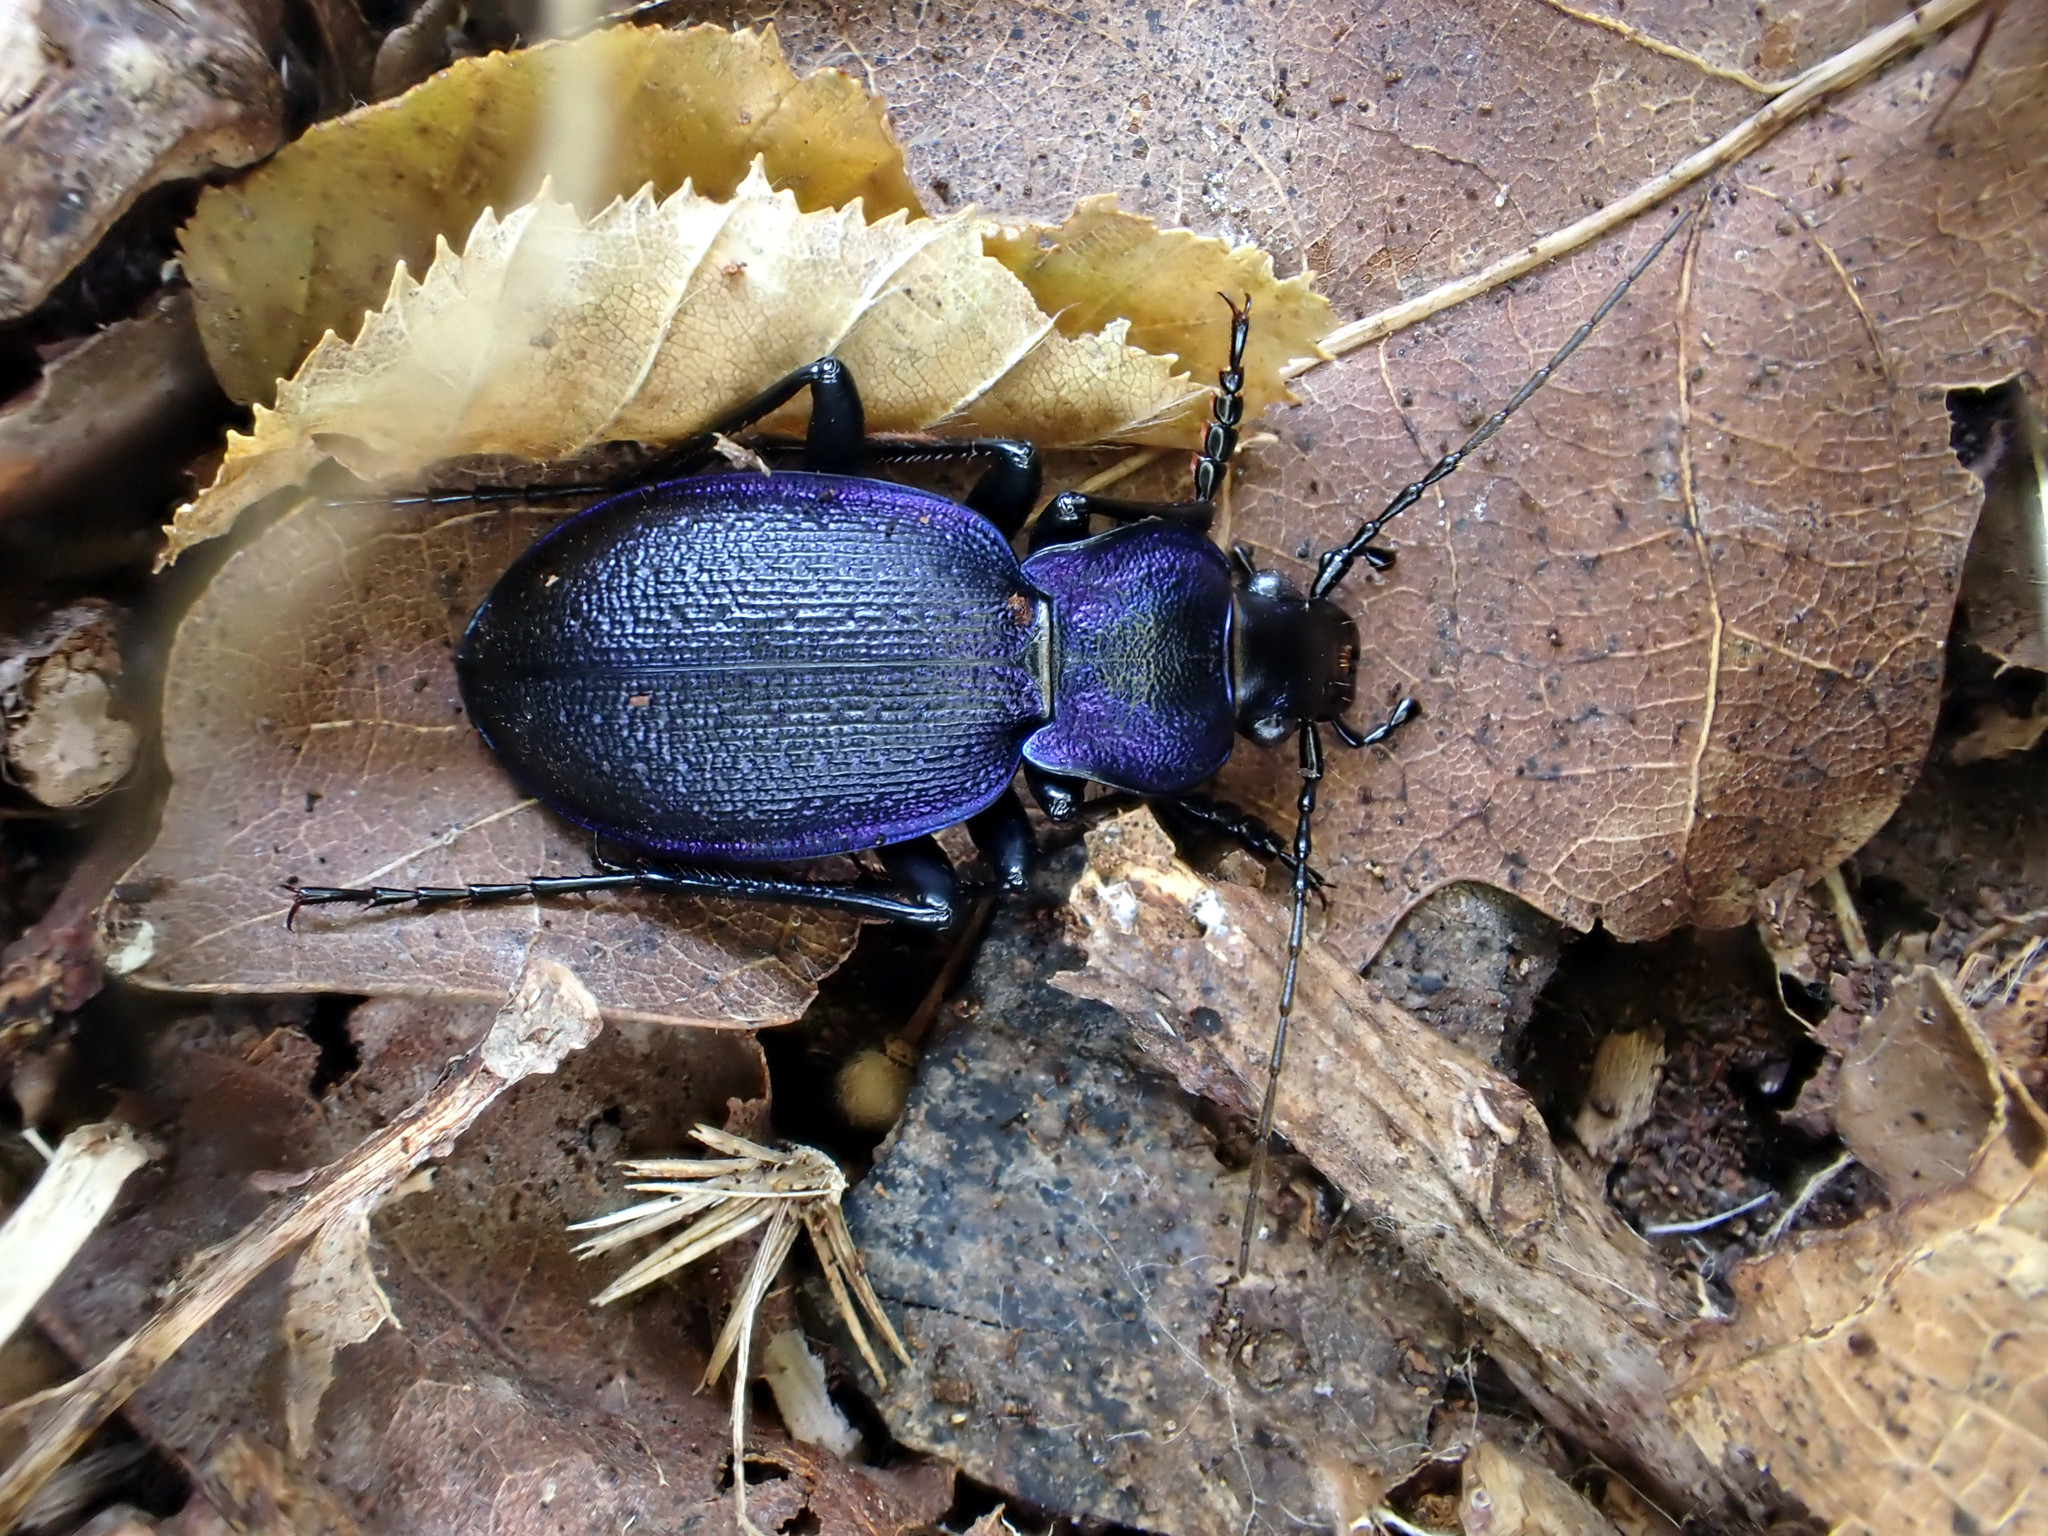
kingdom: Animalia
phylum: Arthropoda
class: Insecta
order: Coleoptera
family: Carabidae
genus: Carabus
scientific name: Carabus problematicus
